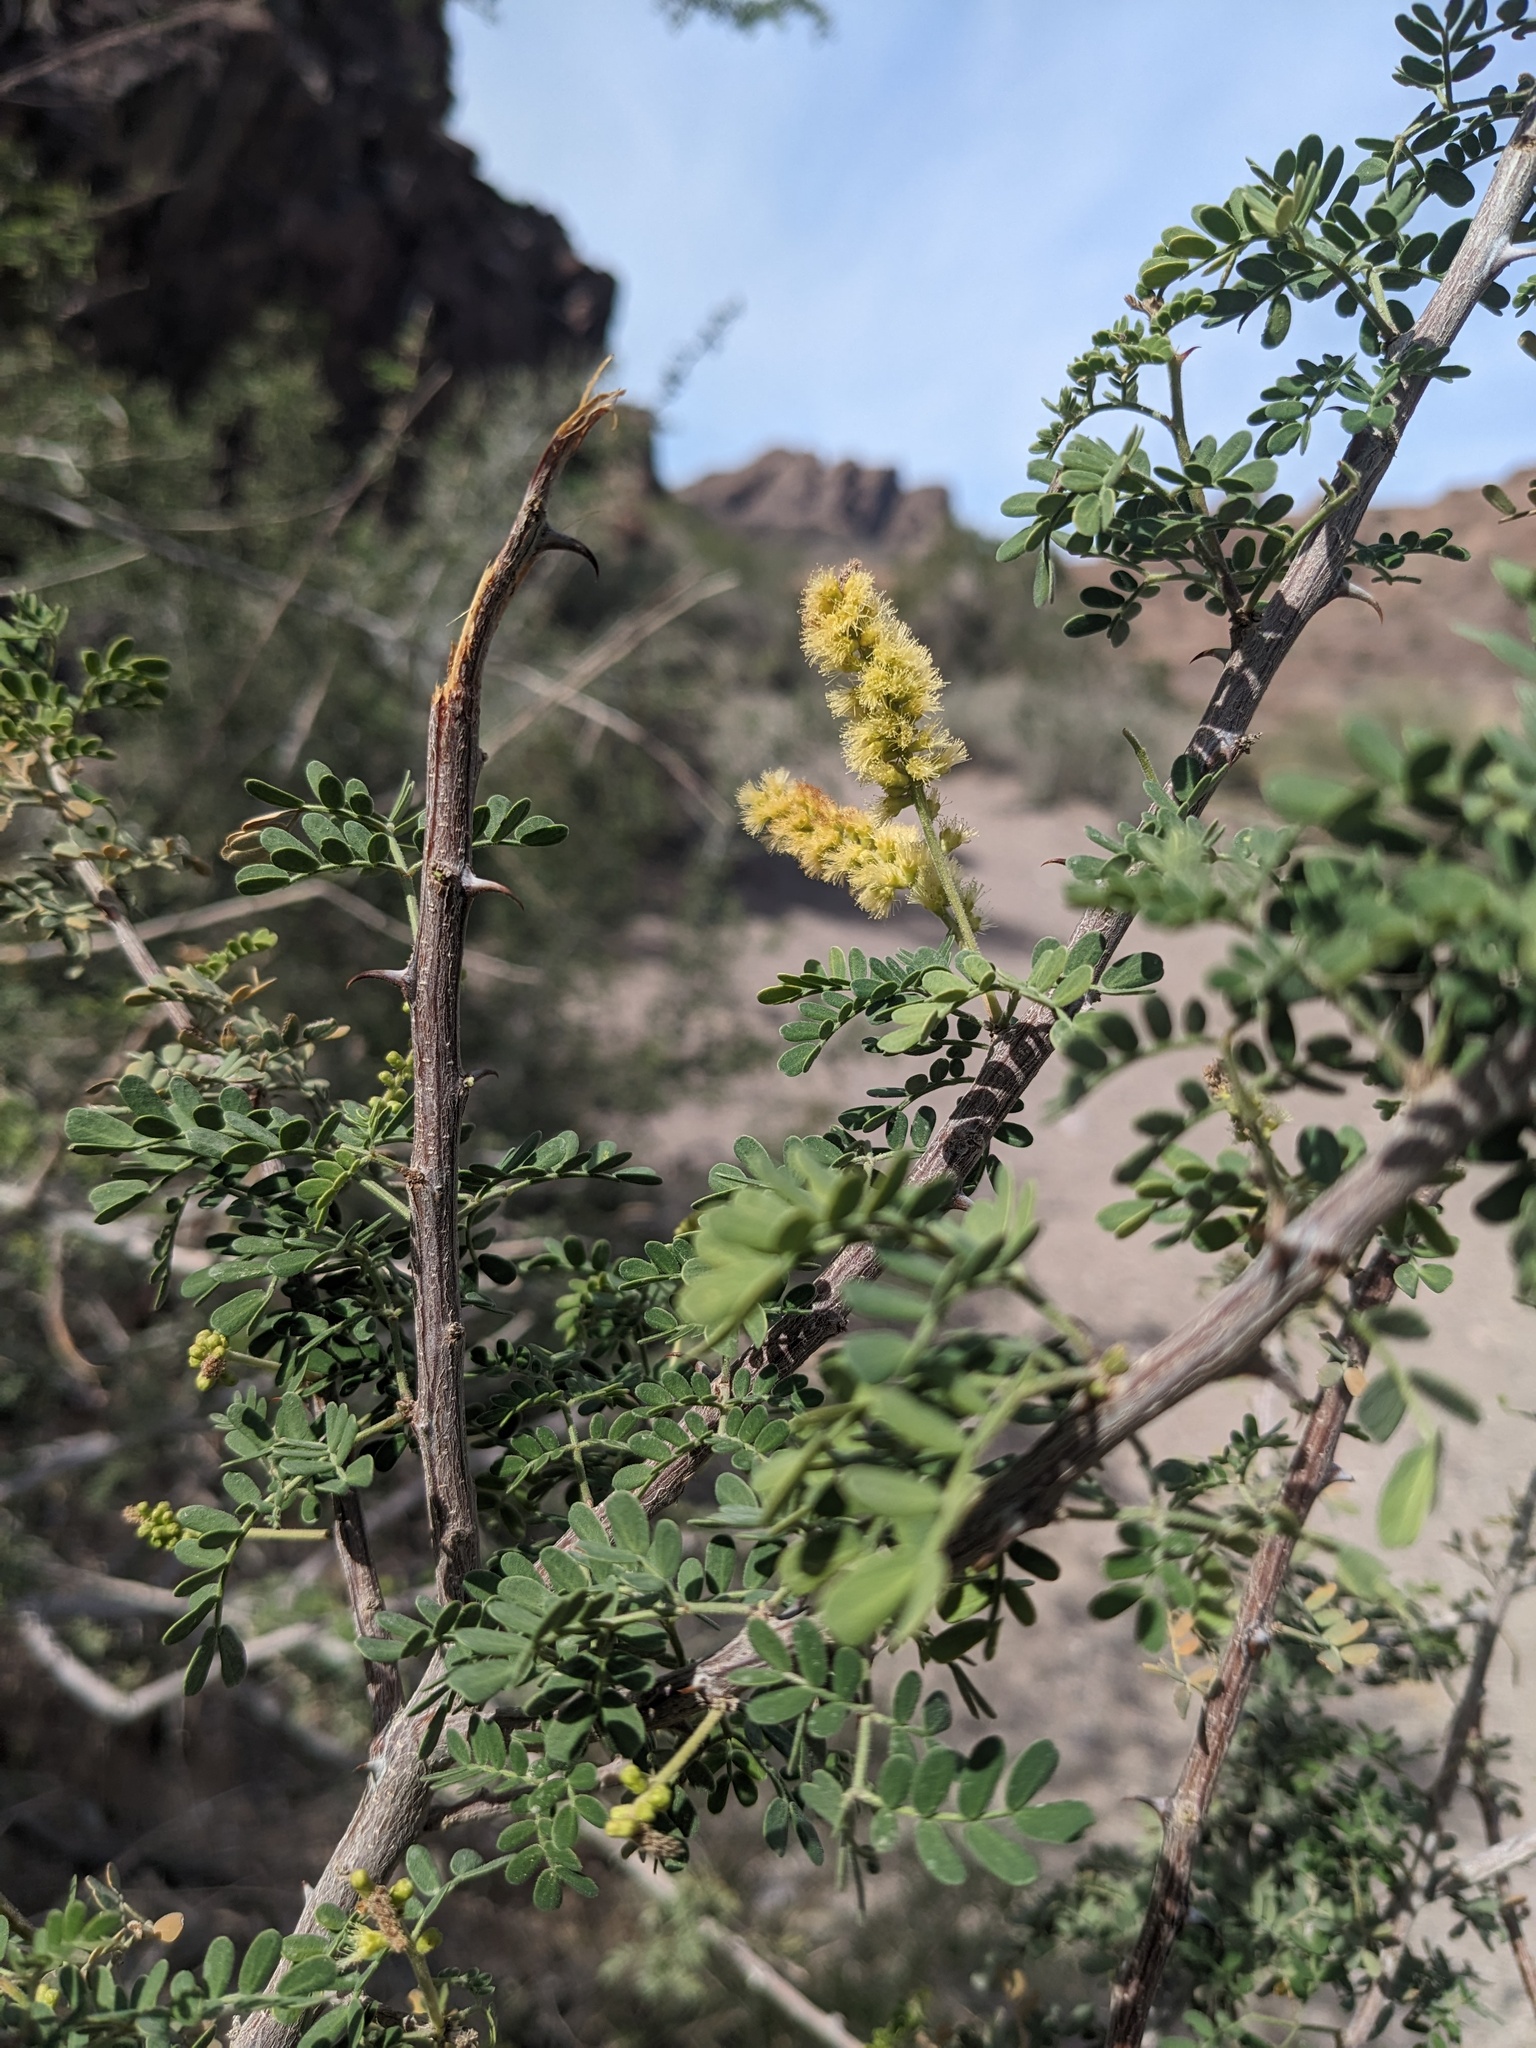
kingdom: Plantae
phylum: Tracheophyta
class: Magnoliopsida
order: Fabales
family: Fabaceae
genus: Senegalia
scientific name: Senegalia greggii
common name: Texas-mimosa
